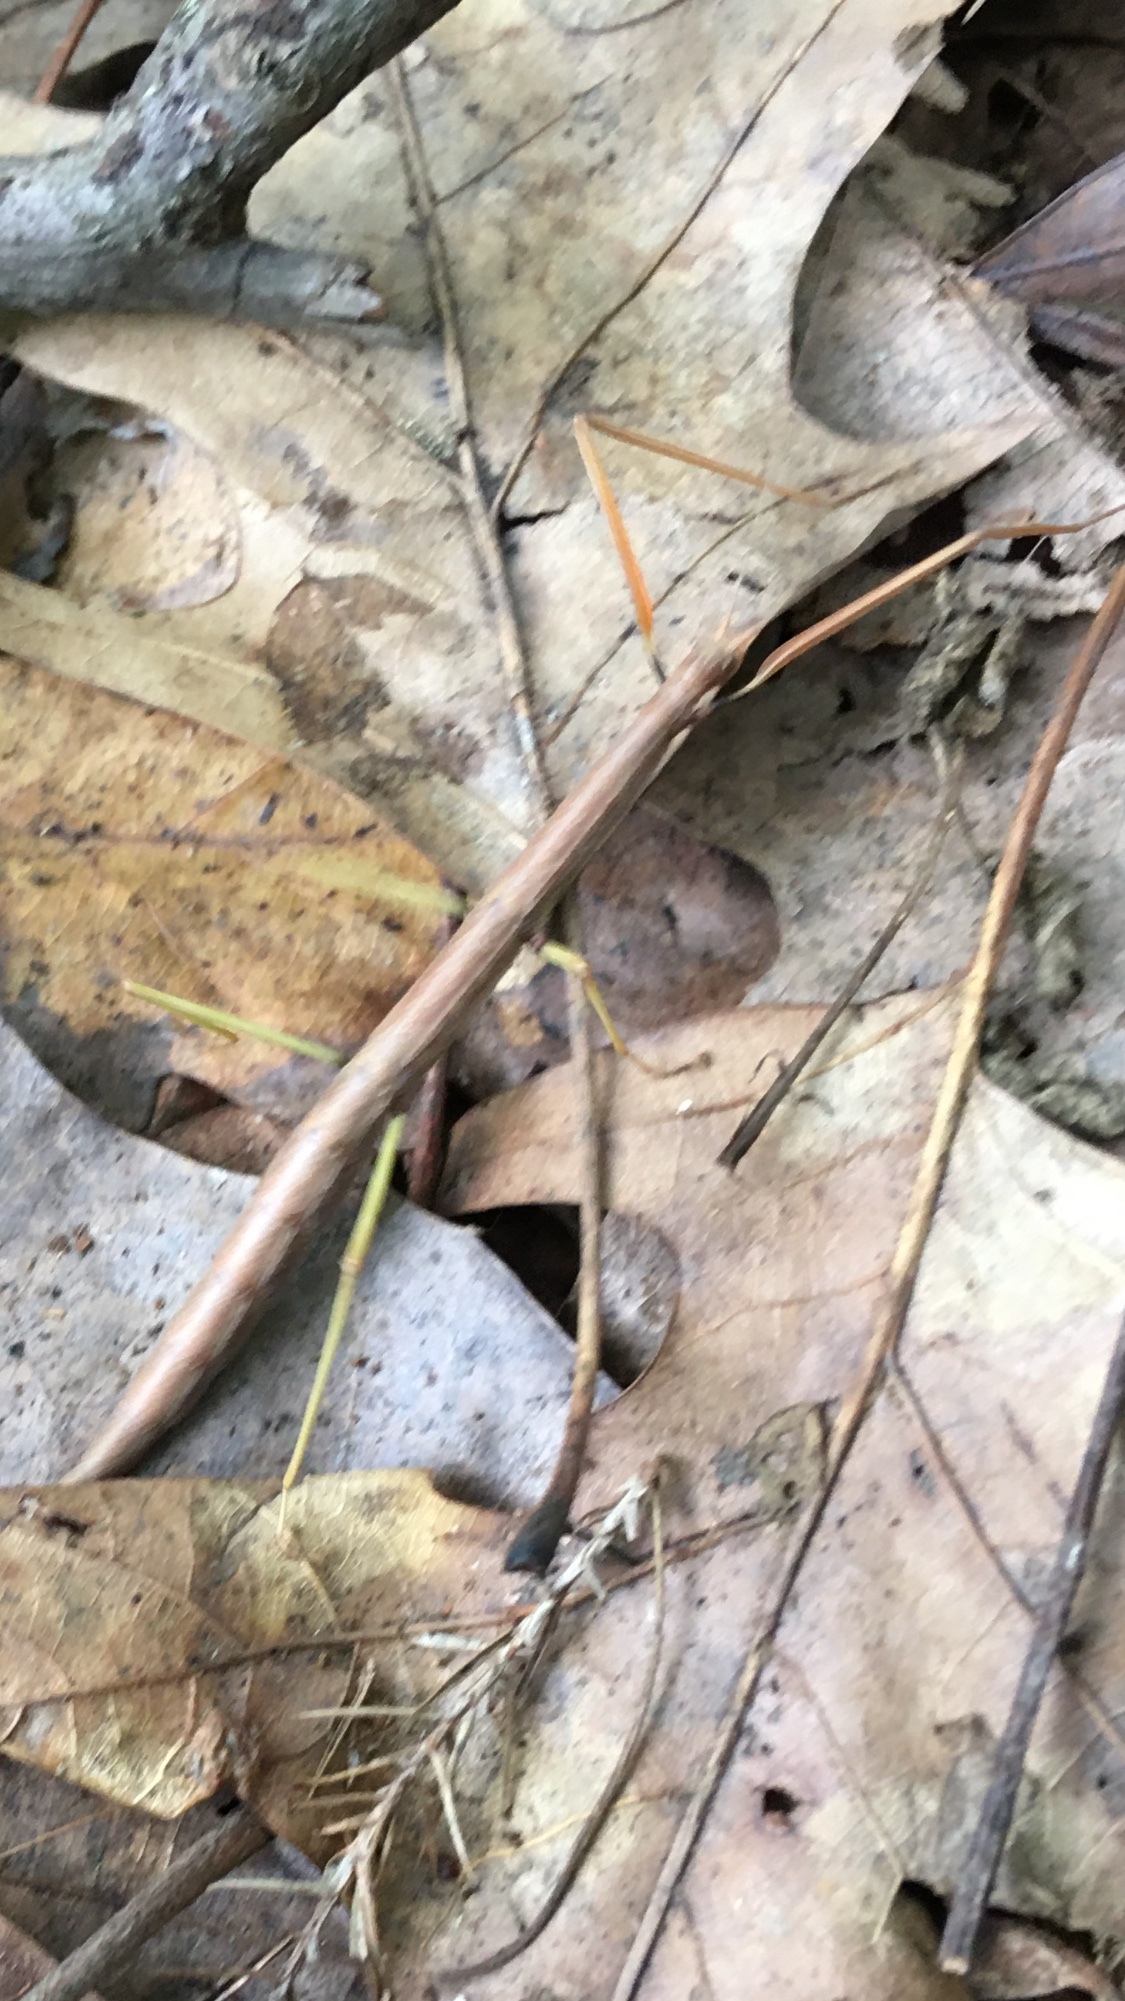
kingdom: Animalia
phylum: Arthropoda
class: Insecta
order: Phasmida
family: Diapheromeridae
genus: Diapheromera
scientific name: Diapheromera femorata
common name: Common american walkingstick
